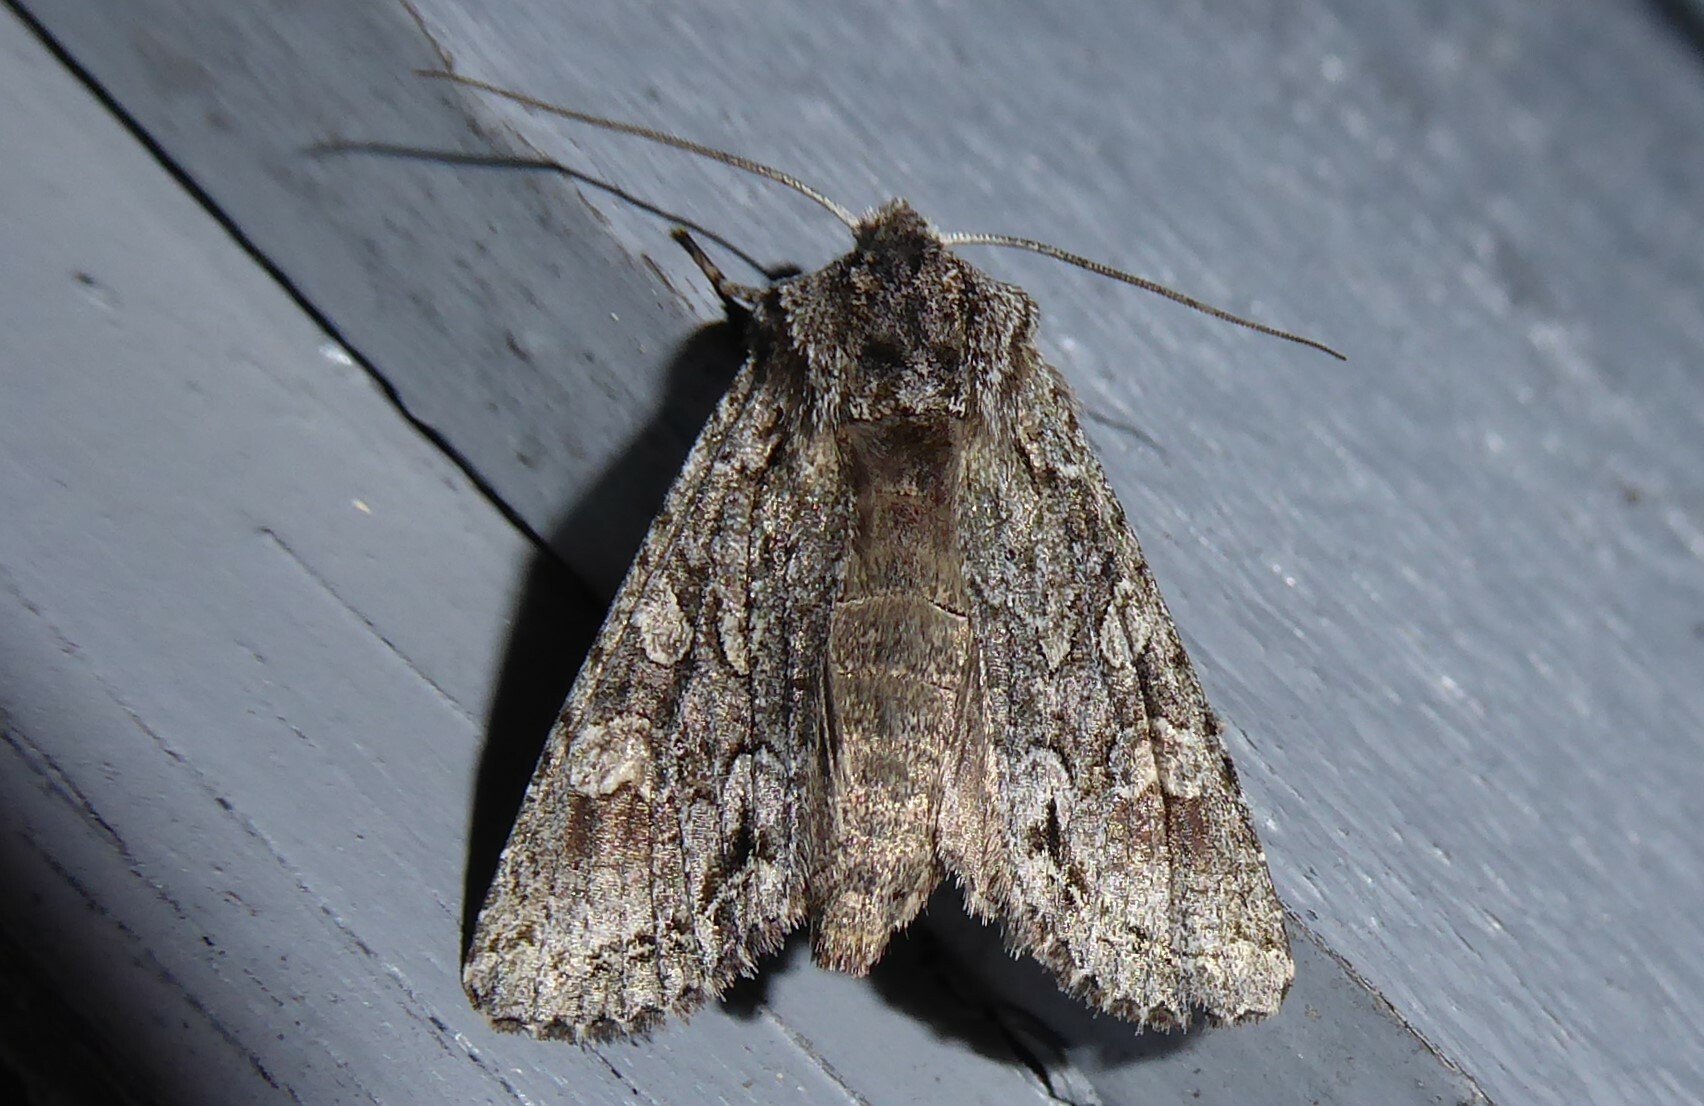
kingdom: Animalia
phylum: Arthropoda
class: Insecta
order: Lepidoptera
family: Noctuidae
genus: Ichneutica
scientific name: Ichneutica mutans
